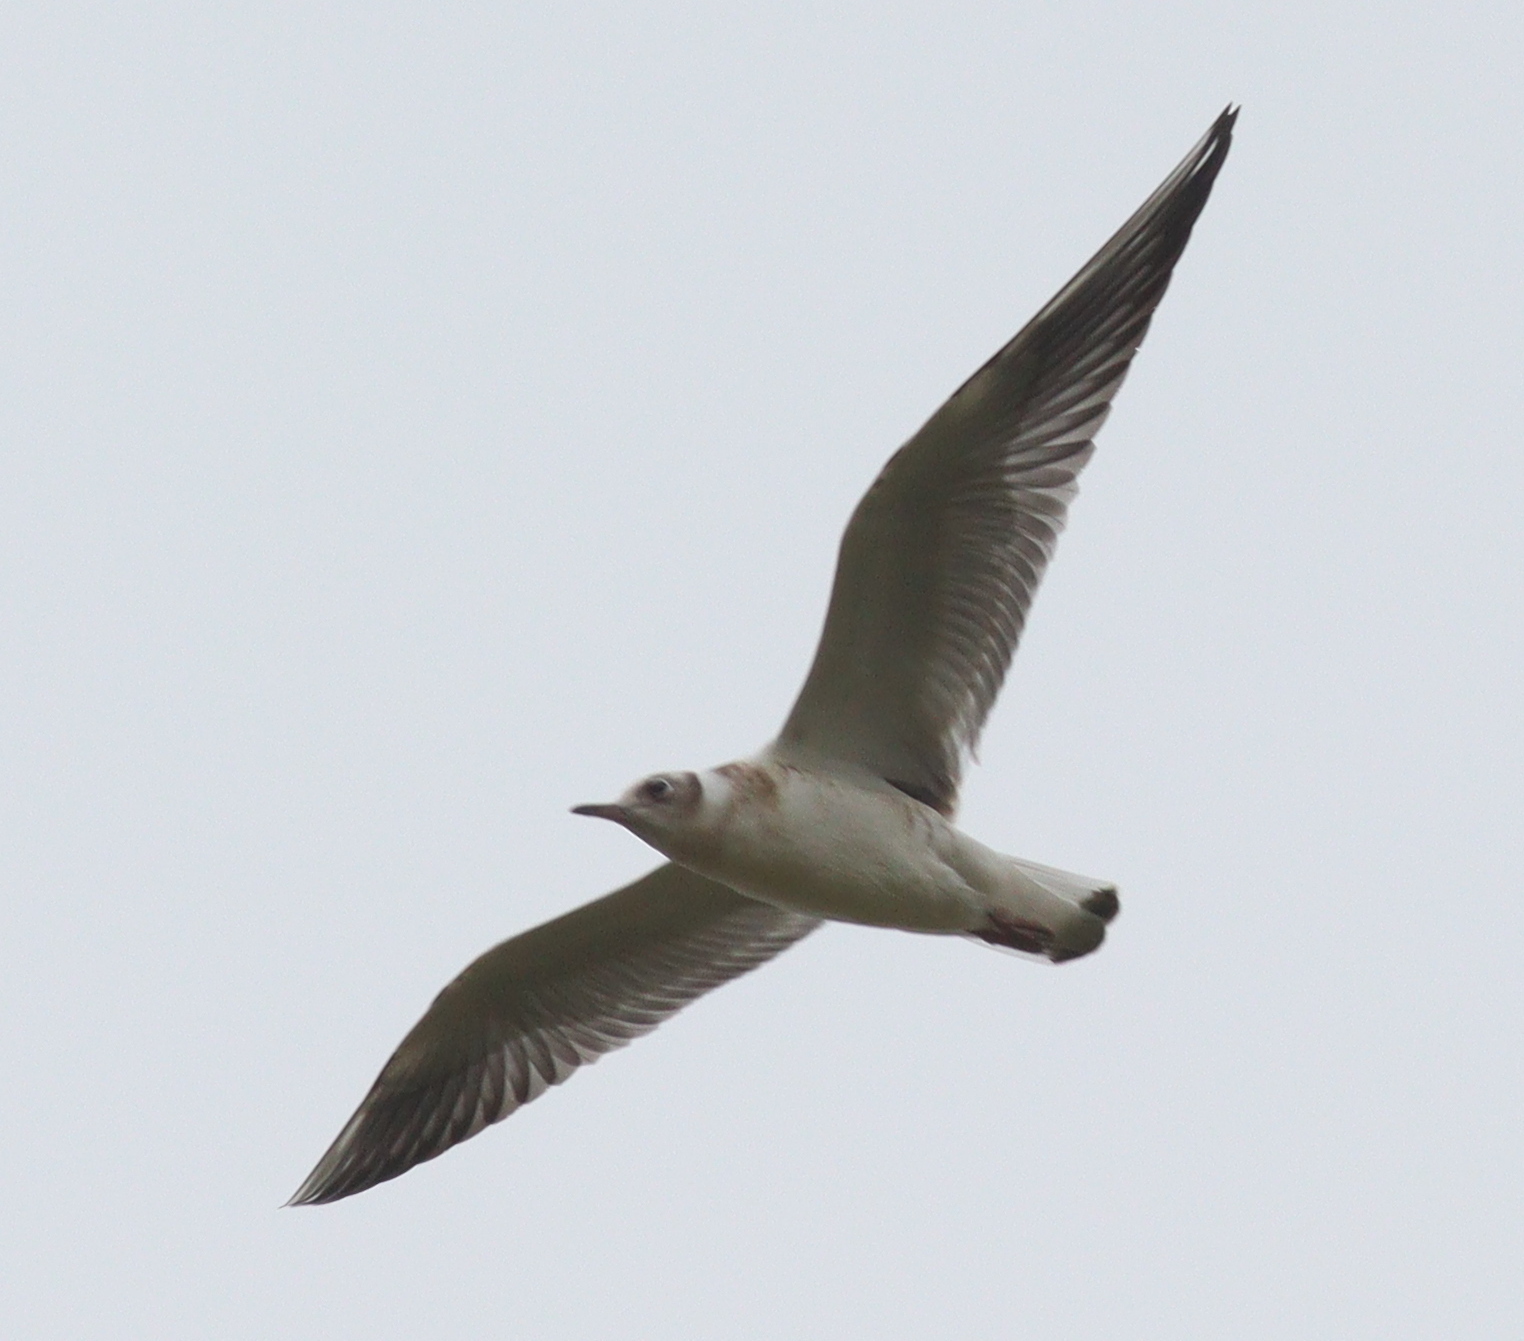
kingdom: Animalia
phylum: Chordata
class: Aves
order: Charadriiformes
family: Laridae
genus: Chroicocephalus
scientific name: Chroicocephalus ridibundus
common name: Black-headed gull
